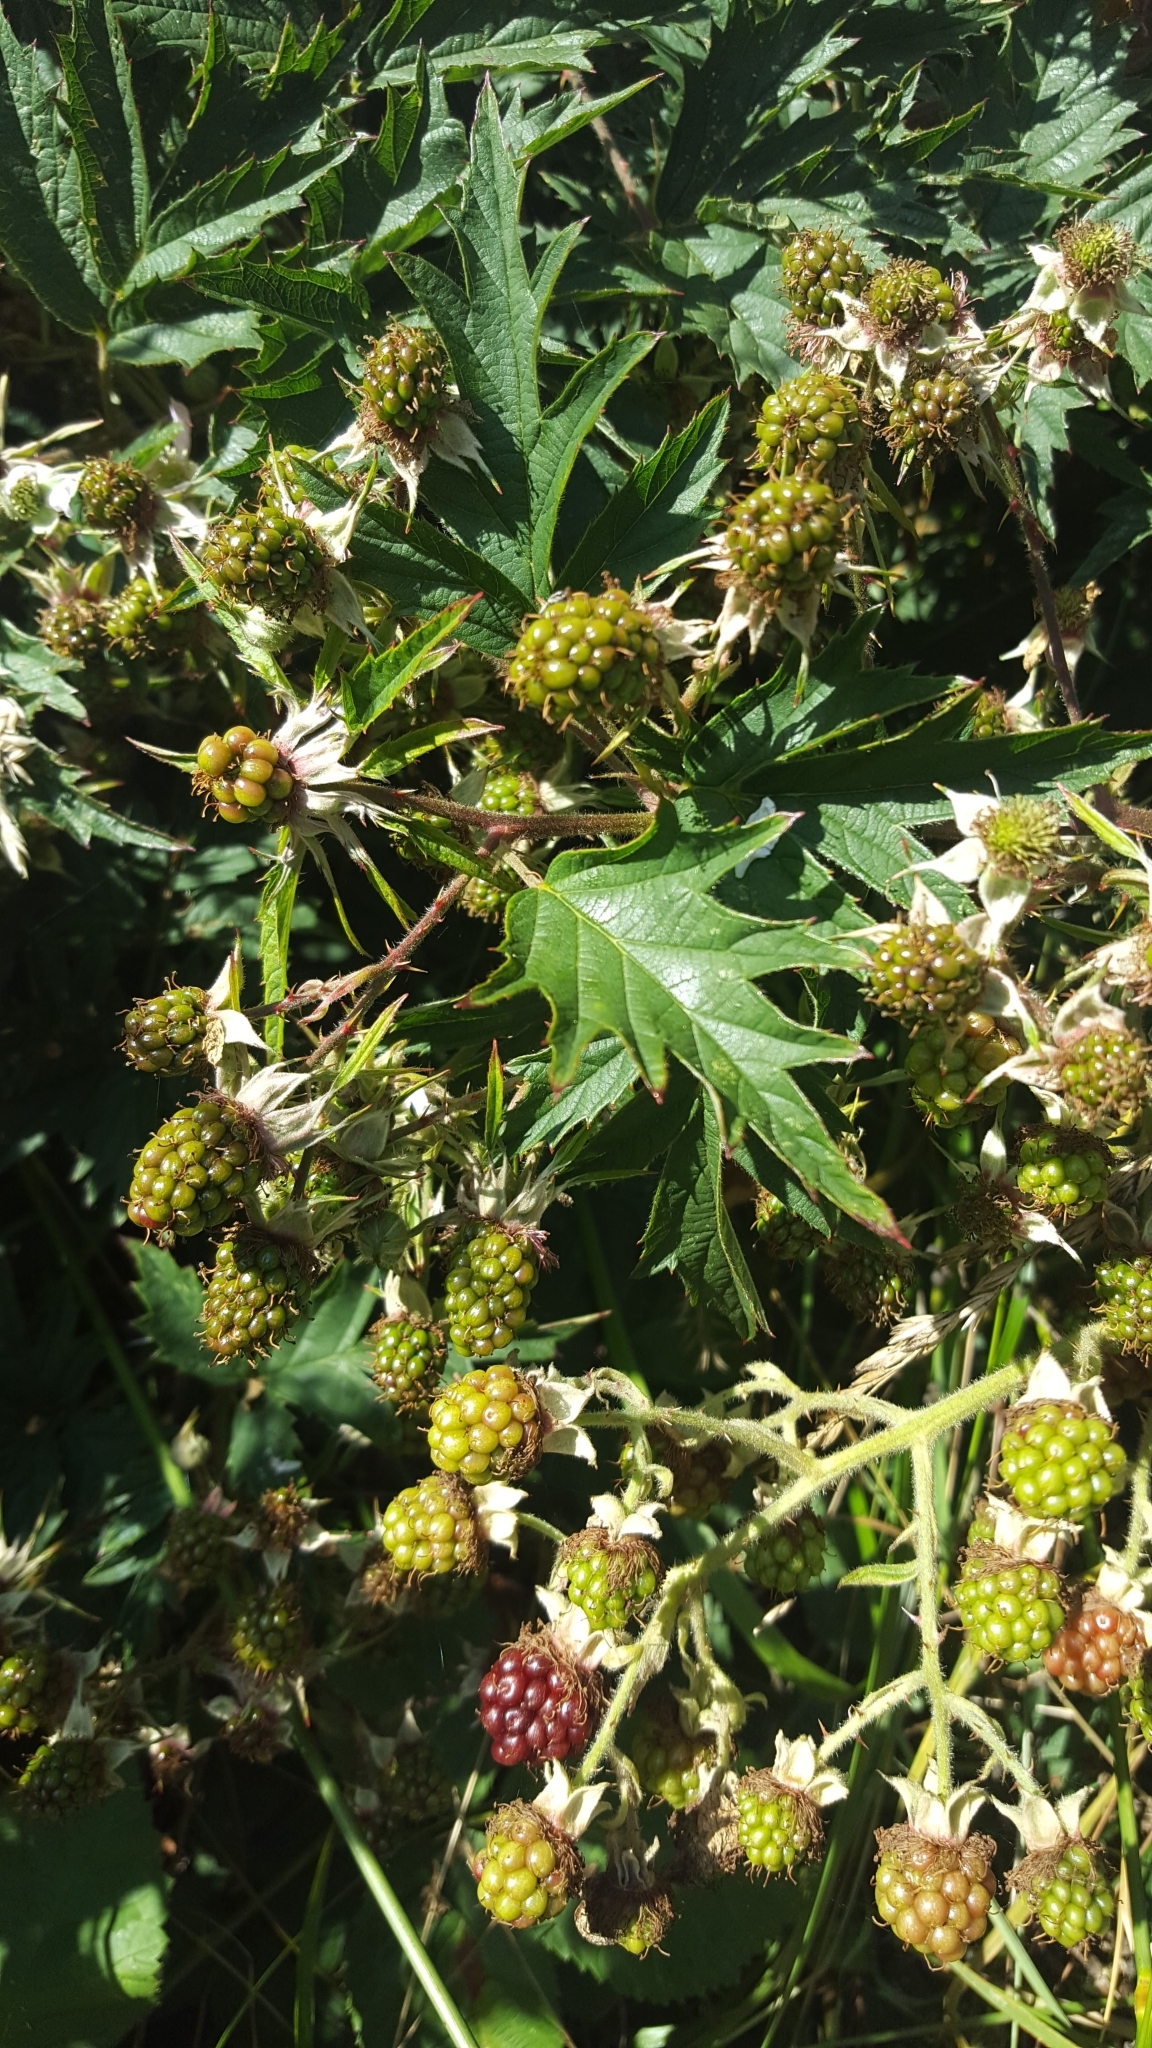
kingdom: Plantae
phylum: Tracheophyta
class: Magnoliopsida
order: Rosales
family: Rosaceae
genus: Rubus
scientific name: Rubus laciniatus
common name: Evergreen blackberry
